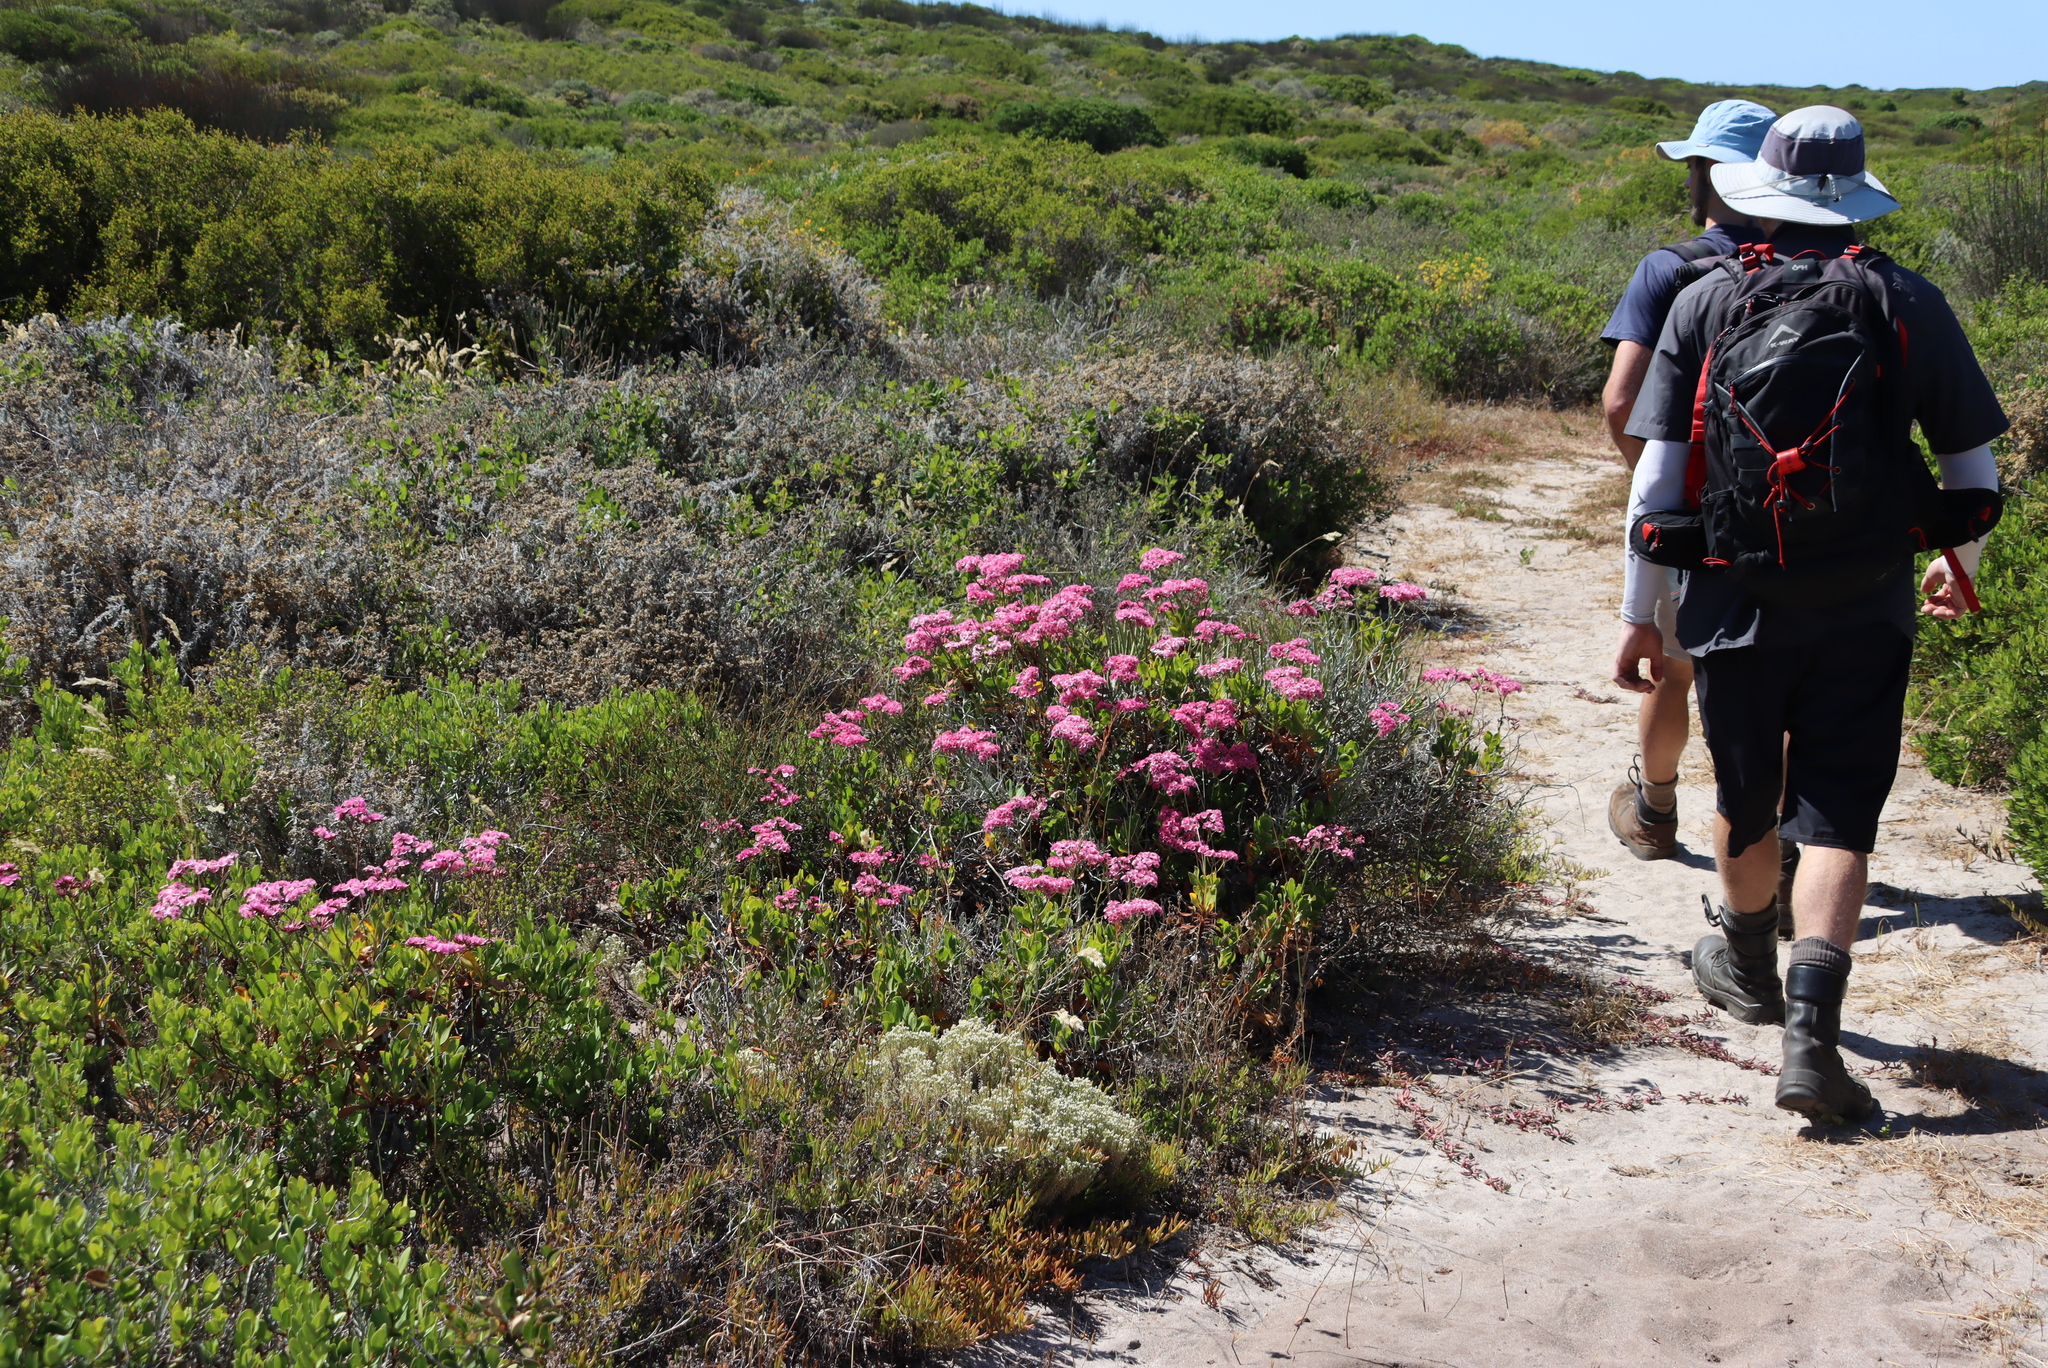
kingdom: Plantae
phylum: Tracheophyta
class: Magnoliopsida
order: Caryophyllales
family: Plumbaginaceae
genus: Limonium
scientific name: Limonium peregrinum
